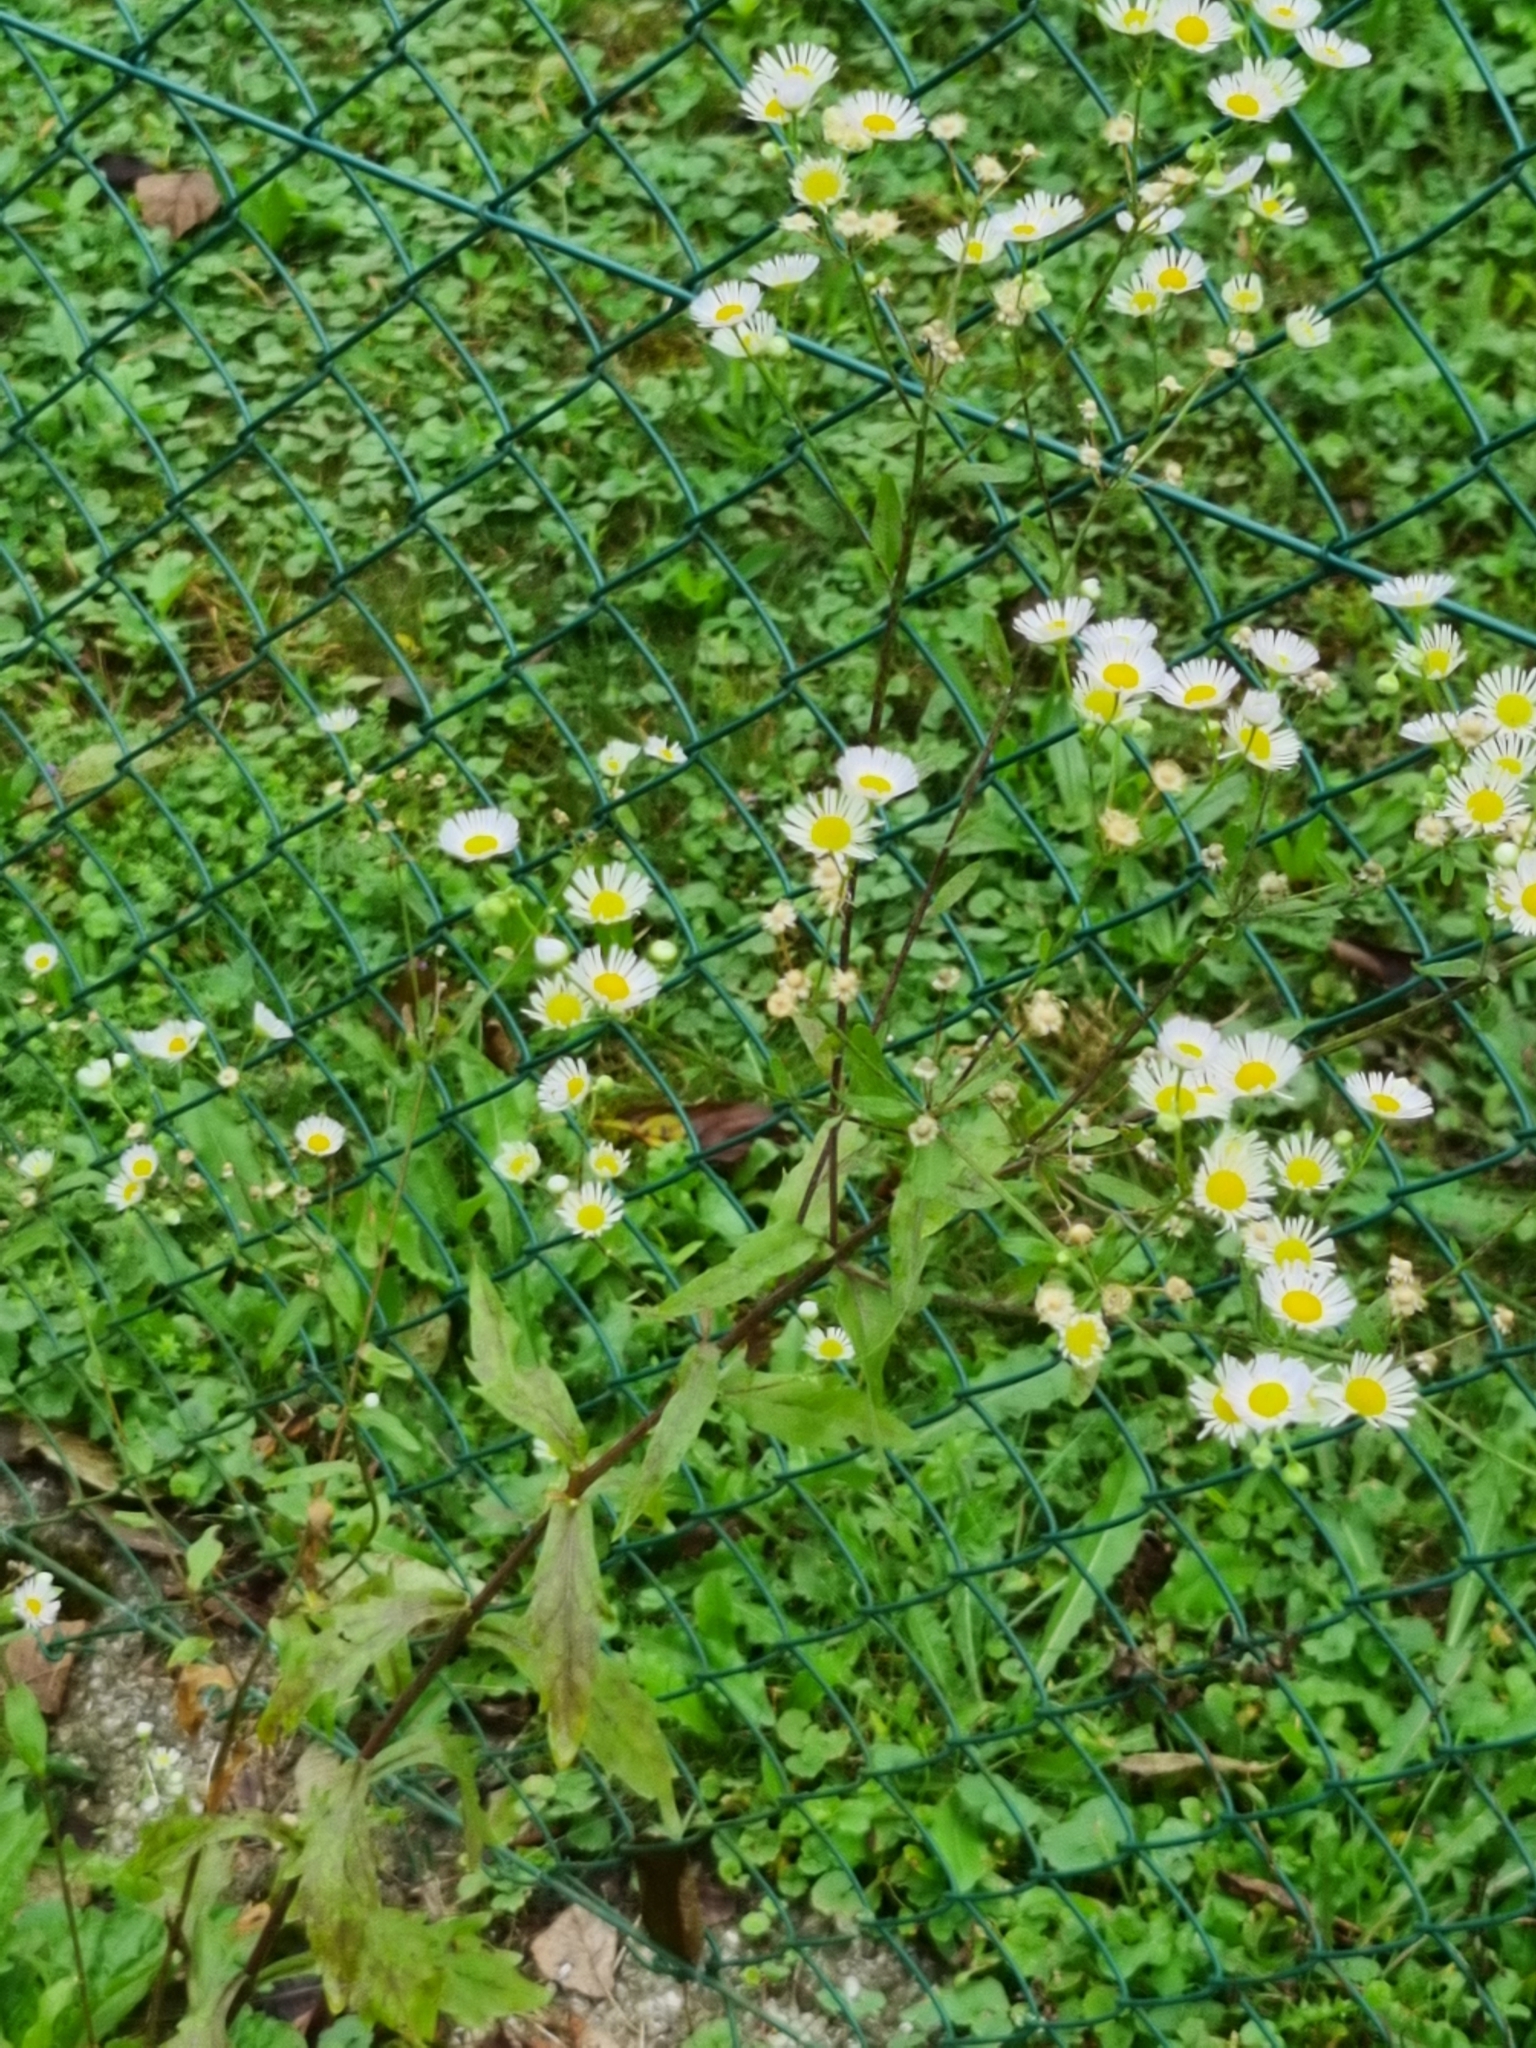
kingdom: Plantae
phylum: Tracheophyta
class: Magnoliopsida
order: Asterales
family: Asteraceae
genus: Erigeron
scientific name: Erigeron annuus
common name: Tall fleabane
